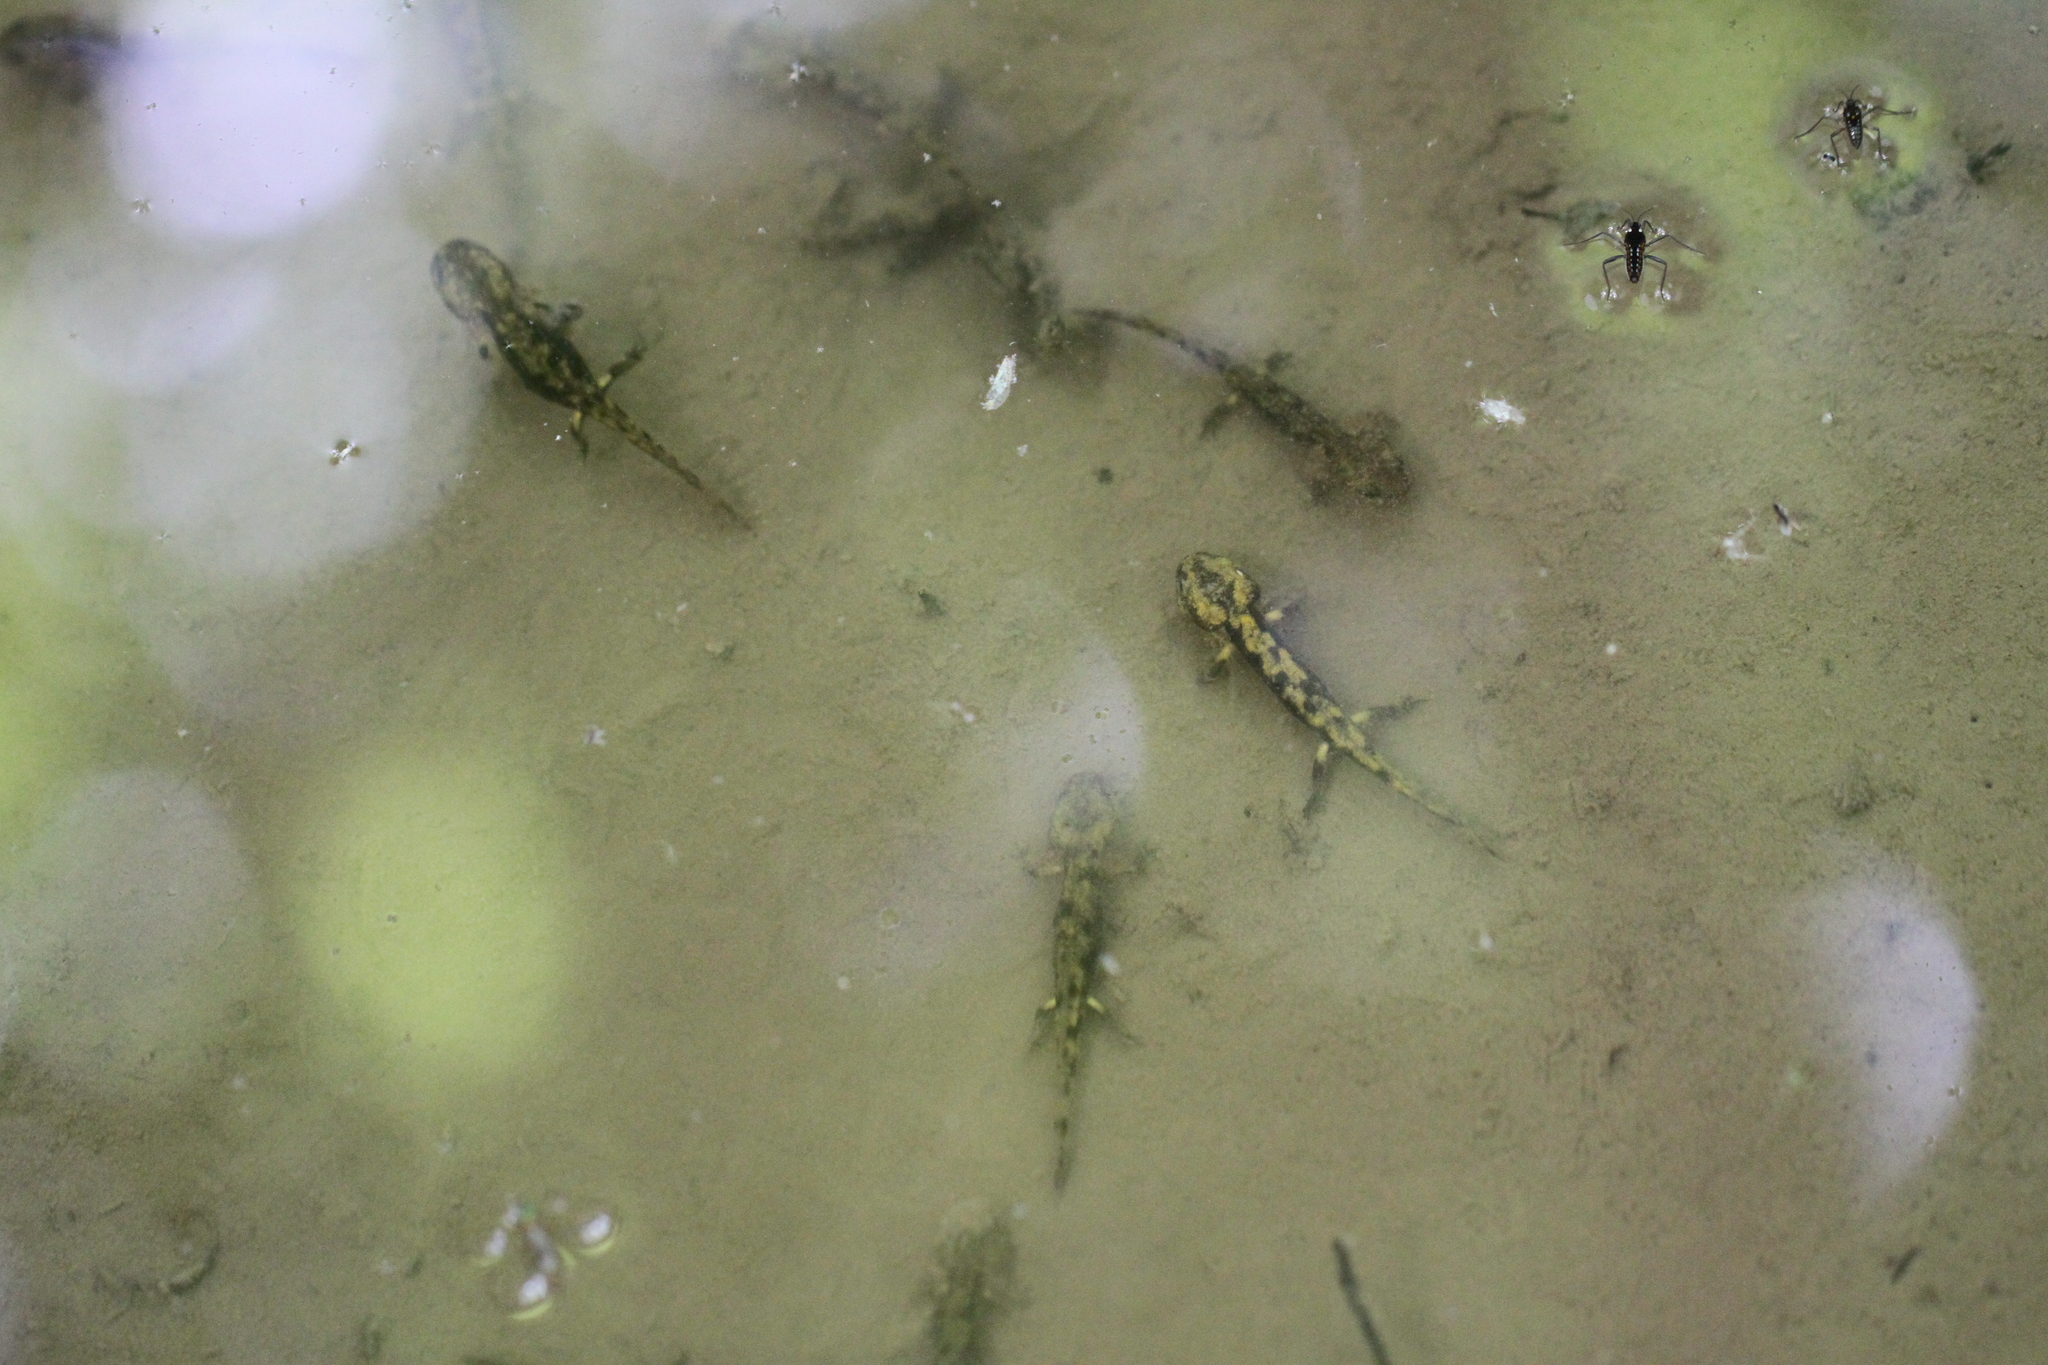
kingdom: Animalia
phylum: Chordata
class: Amphibia
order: Caudata
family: Salamandridae
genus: Salamandra
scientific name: Salamandra salamandra
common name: Fire salamander
